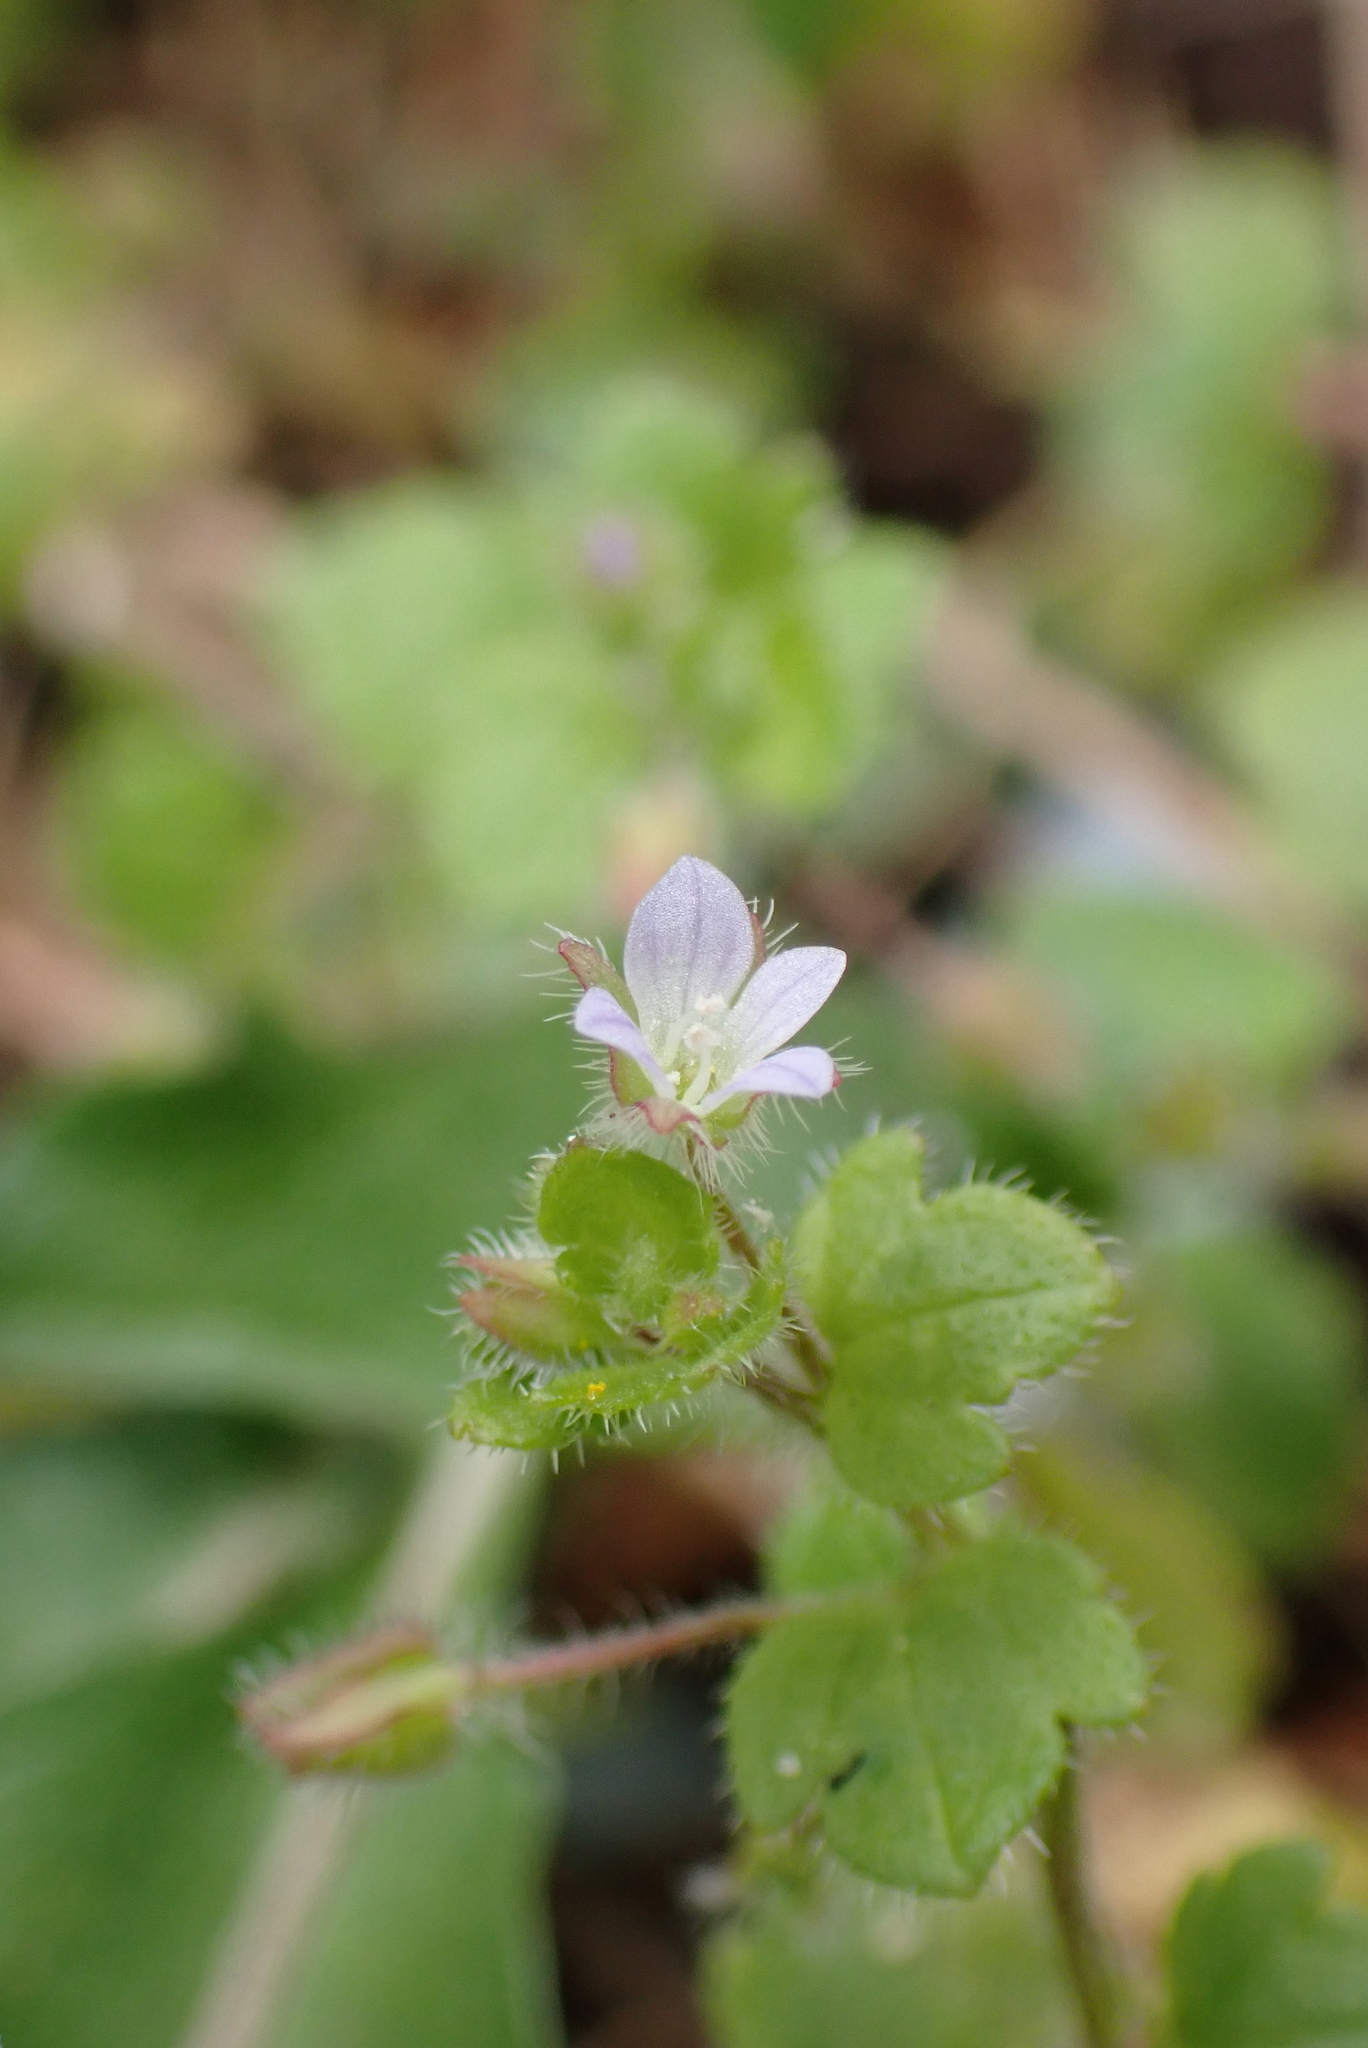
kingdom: Plantae
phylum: Tracheophyta
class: Magnoliopsida
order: Lamiales
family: Plantaginaceae
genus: Veronica
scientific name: Veronica sublobata
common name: False ivy-leaved speedwell
